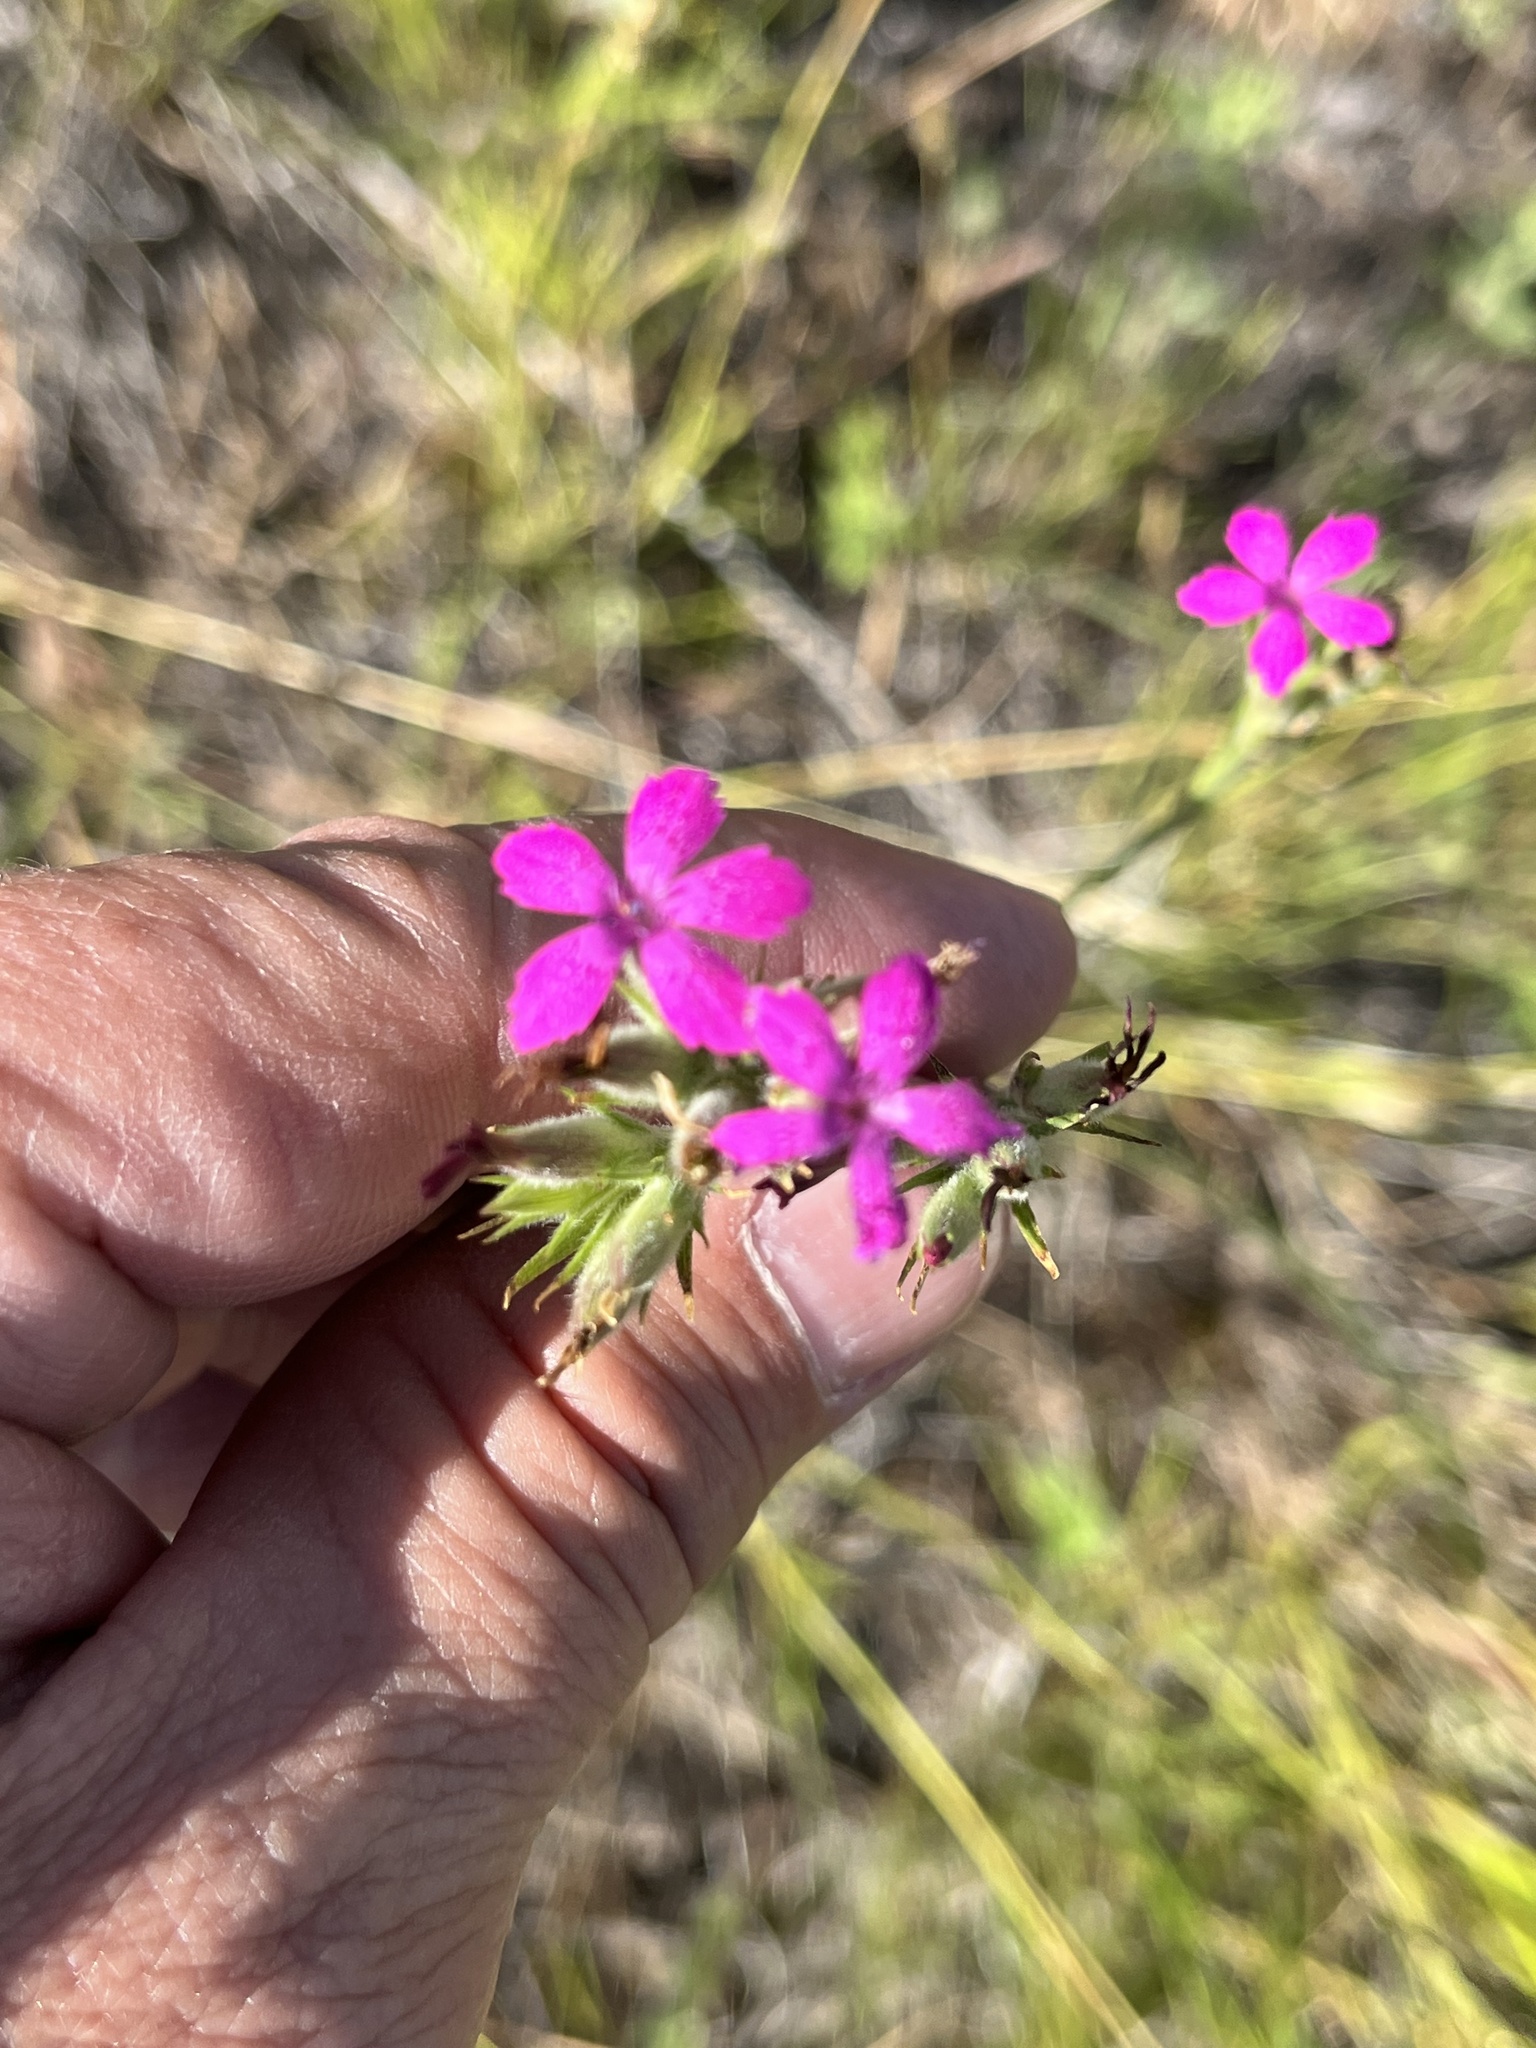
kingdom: Plantae
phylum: Tracheophyta
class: Magnoliopsida
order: Caryophyllales
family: Caryophyllaceae
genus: Dianthus
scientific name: Dianthus armeria
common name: Deptford pink
